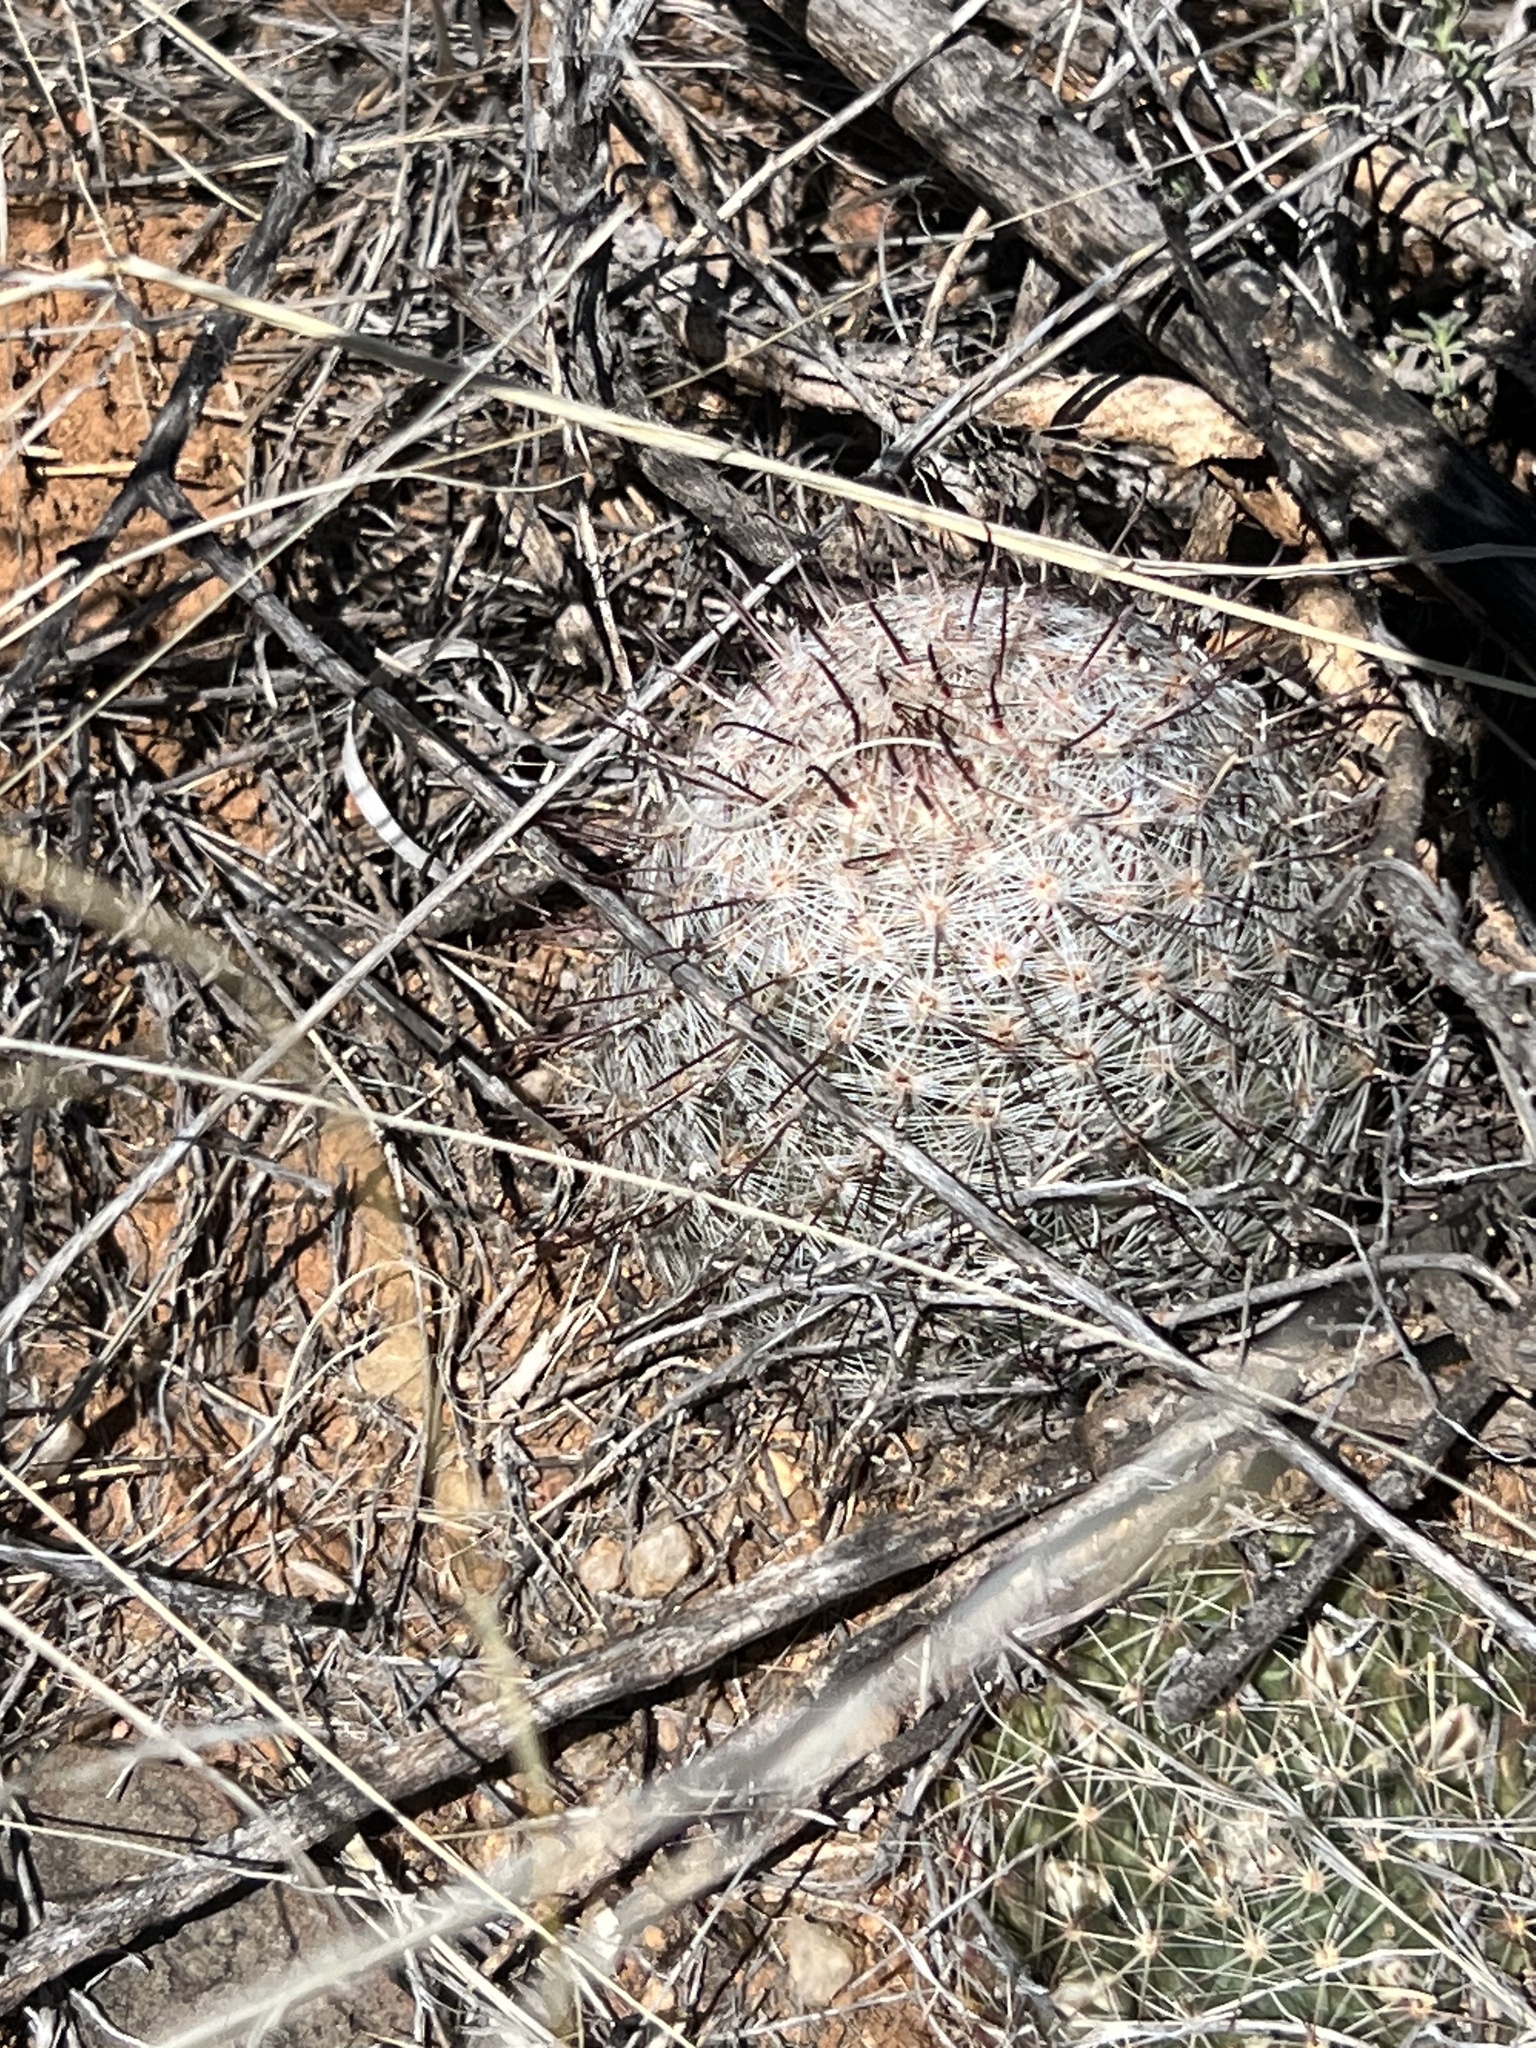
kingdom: Plantae
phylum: Tracheophyta
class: Magnoliopsida
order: Caryophyllales
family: Cactaceae
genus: Cochemiea
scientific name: Cochemiea grahamii
